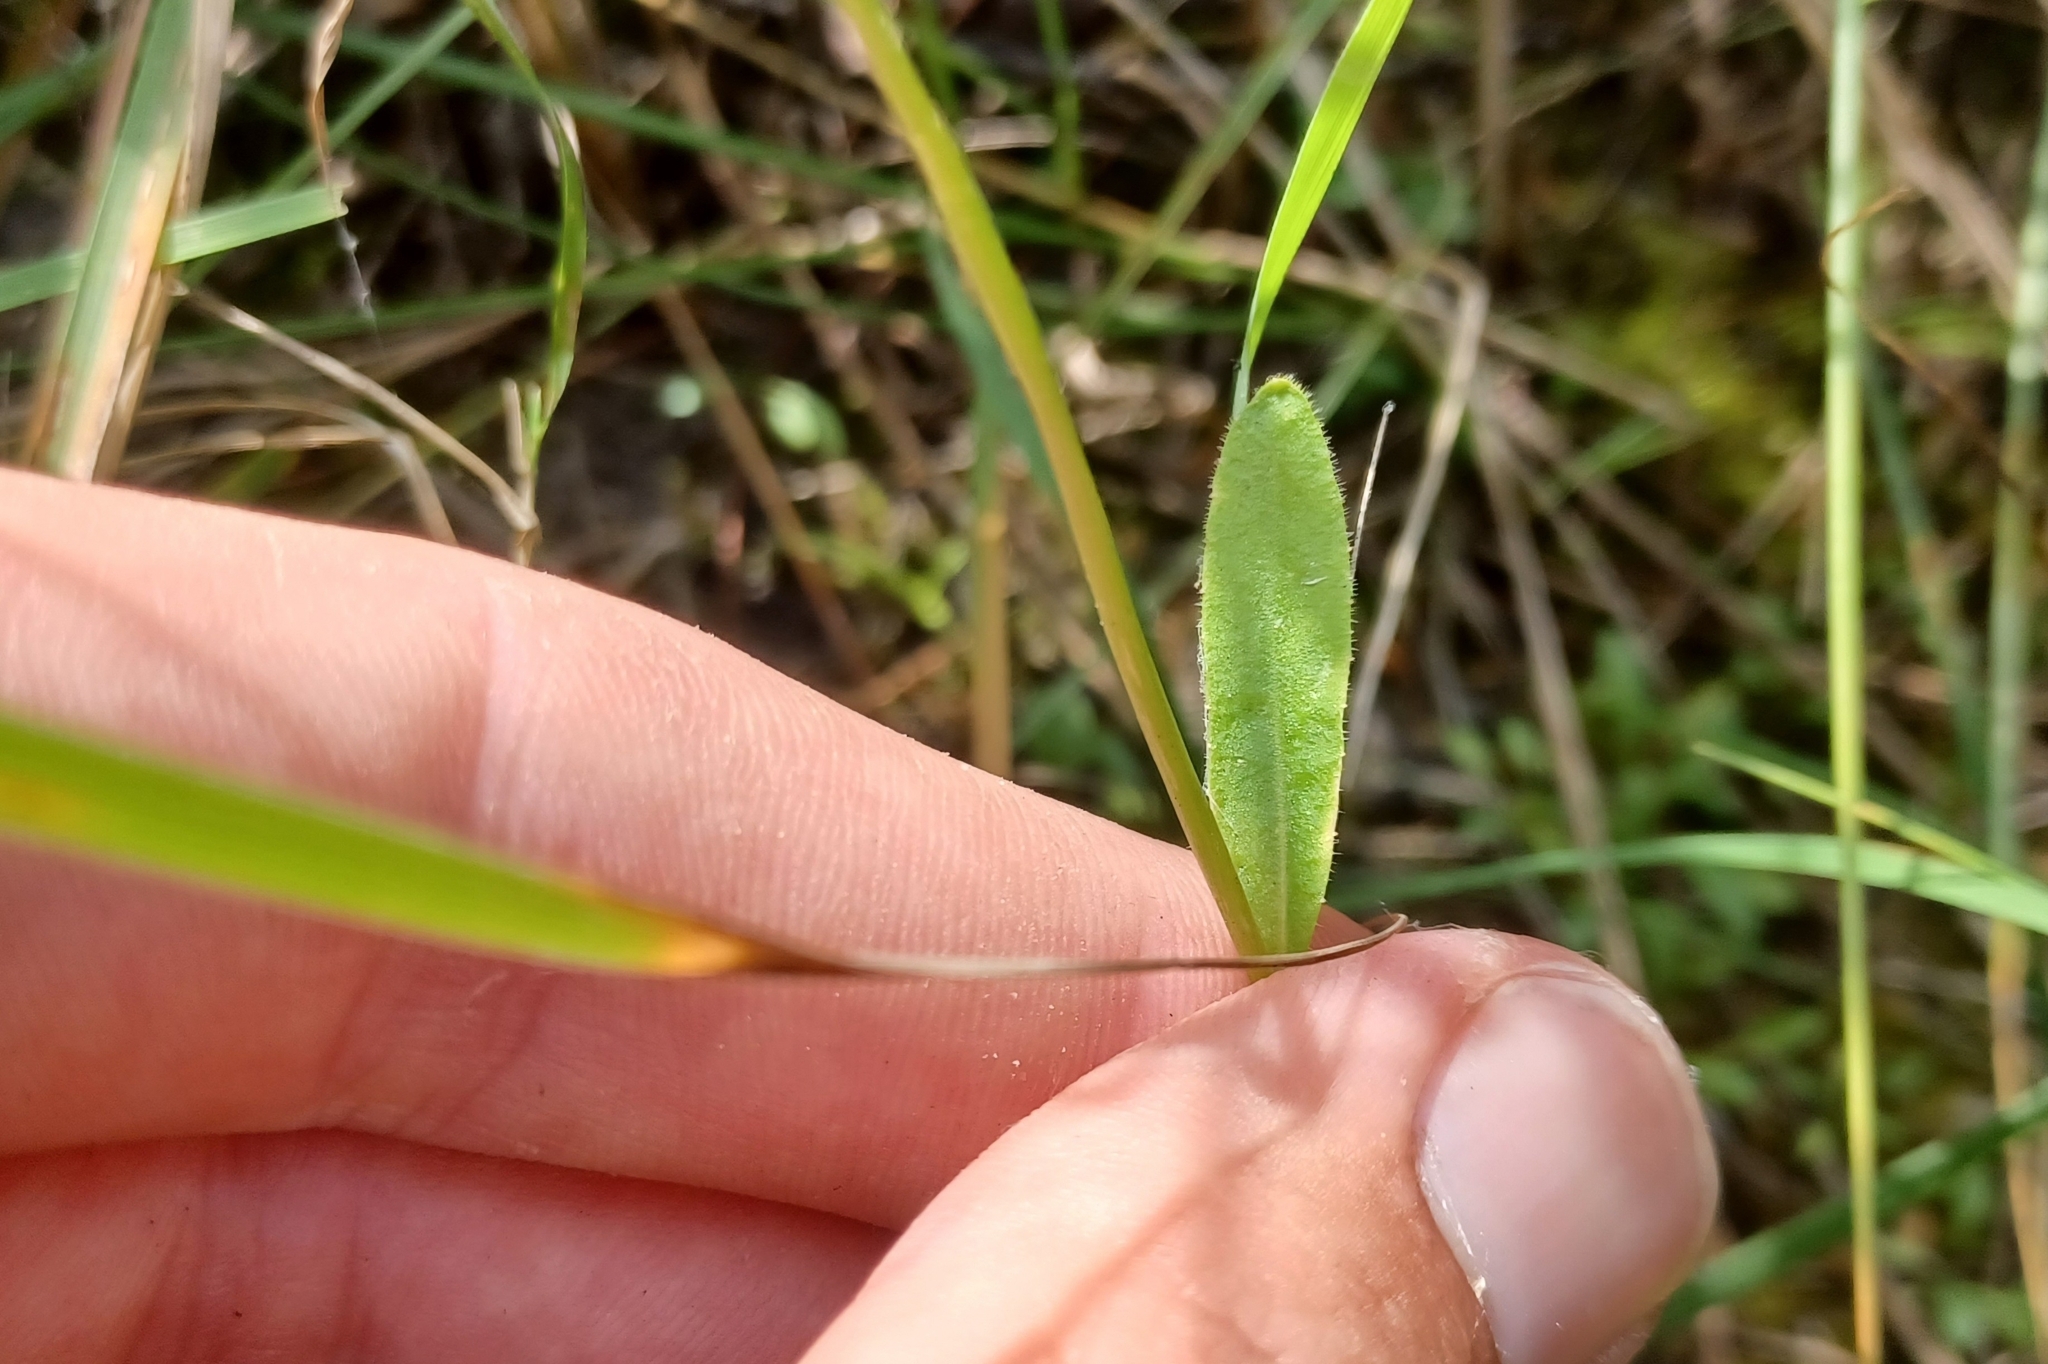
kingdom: Plantae
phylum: Tracheophyta
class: Magnoliopsida
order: Asterales
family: Campanulaceae
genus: Lobelia
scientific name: Lobelia spicata
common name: Pale-spike lobelia
